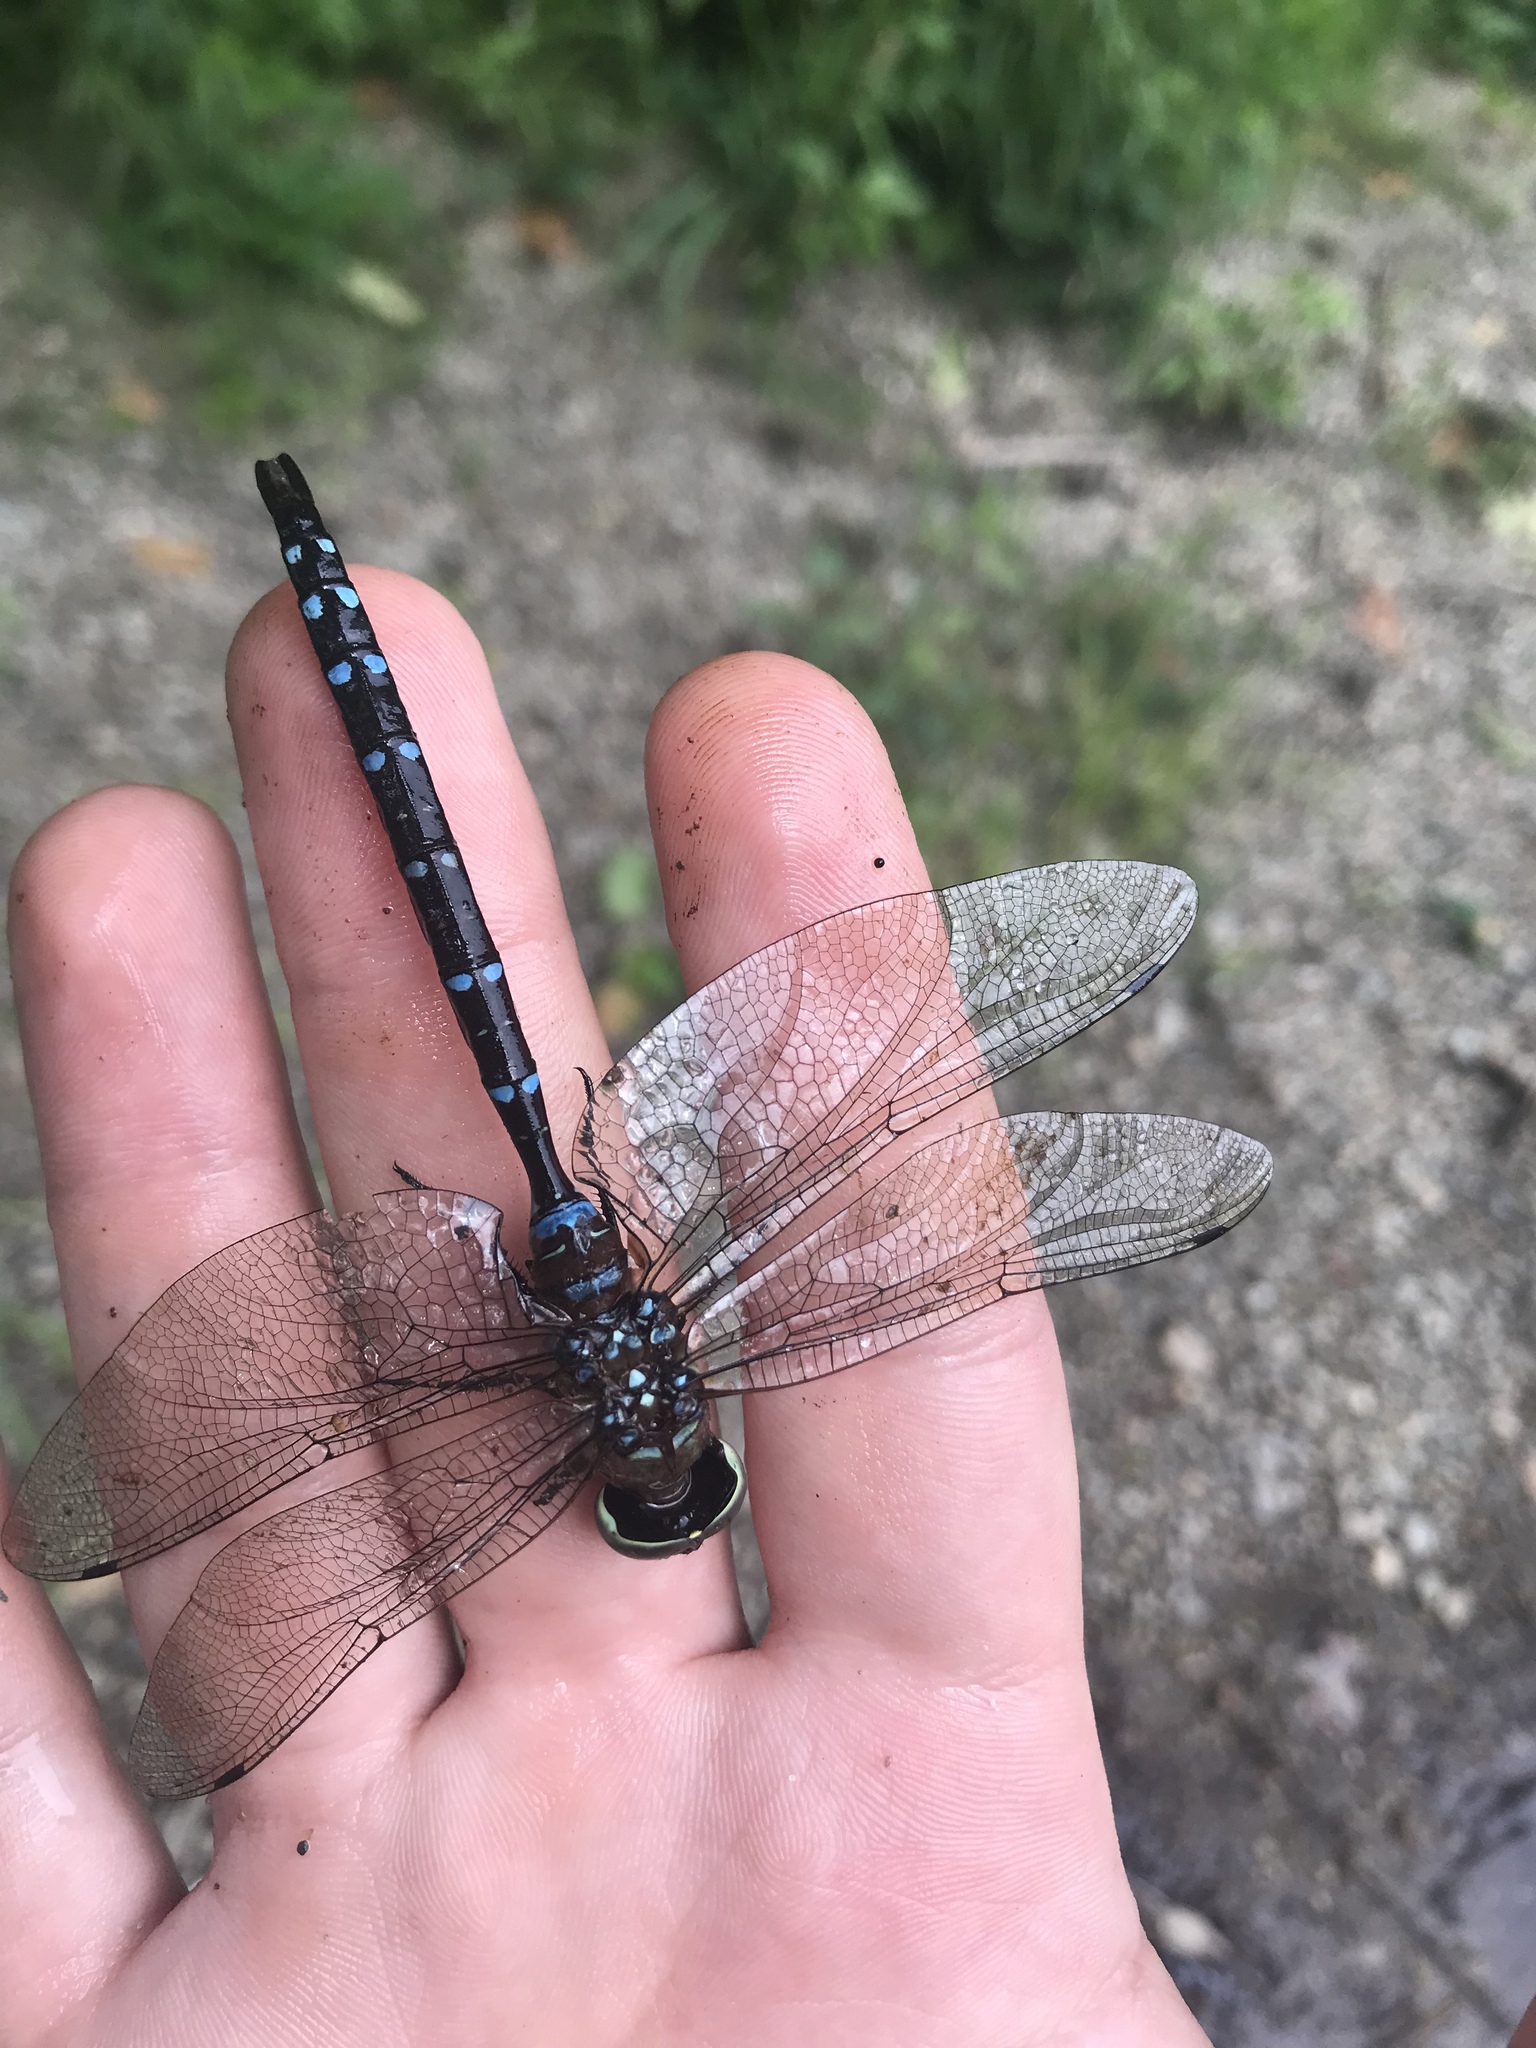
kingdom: Animalia
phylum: Arthropoda
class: Insecta
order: Odonata
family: Aeshnidae
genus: Aeshna
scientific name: Aeshna tuberculifera
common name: Aeschne à tubercules
